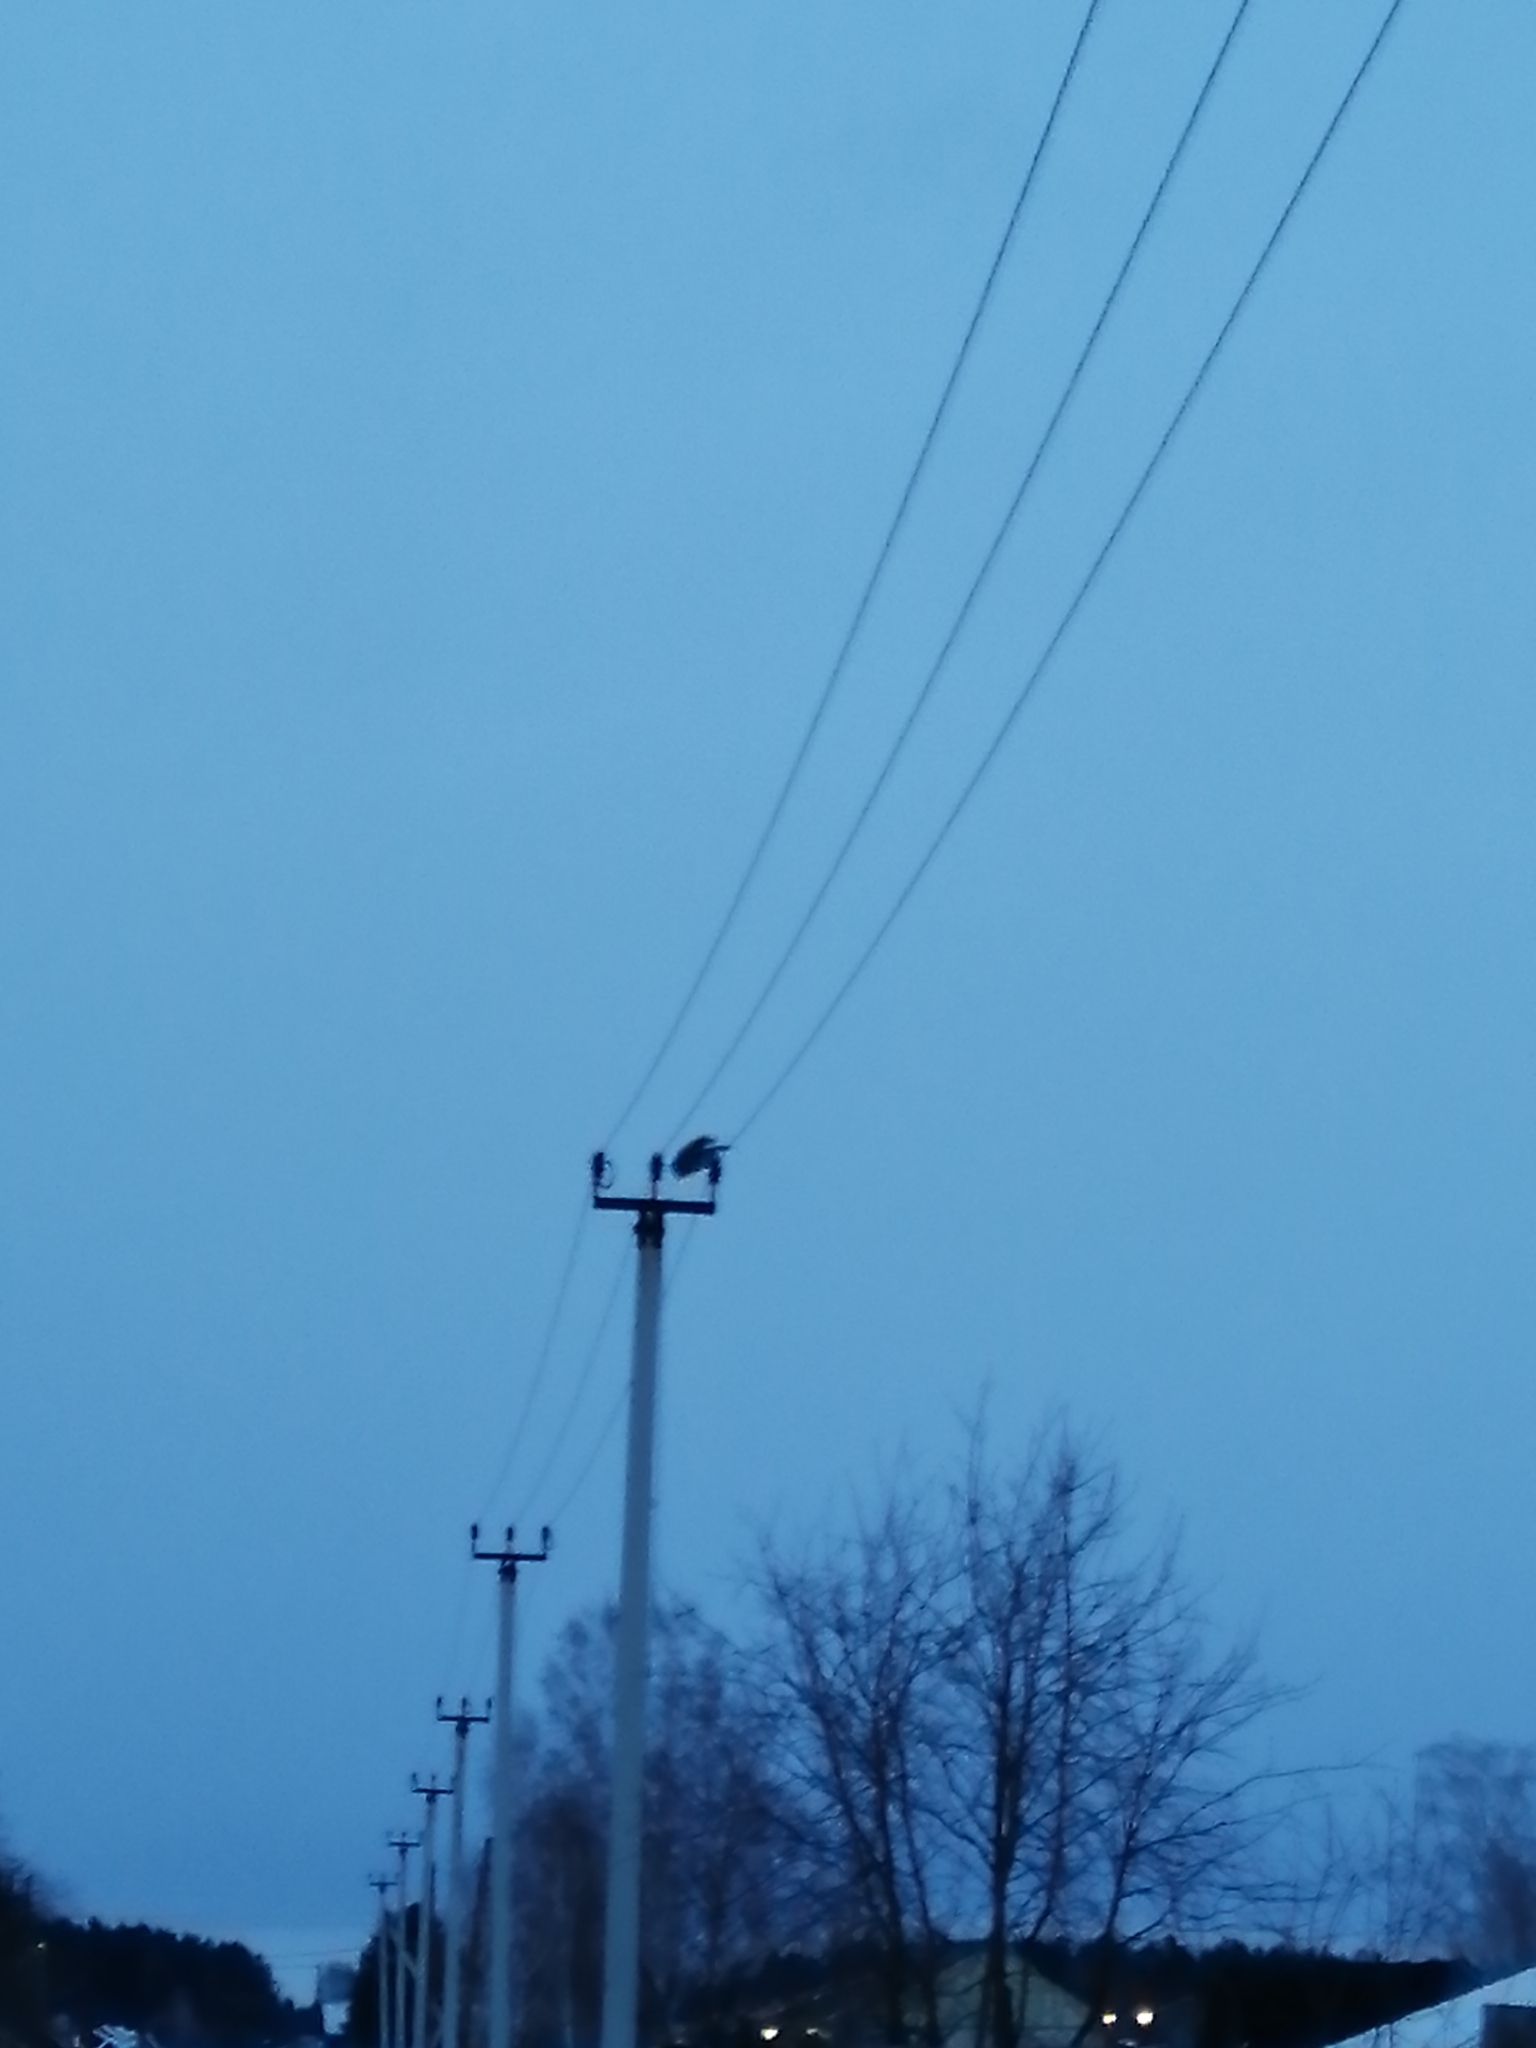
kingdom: Animalia
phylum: Chordata
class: Aves
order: Strigiformes
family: Strigidae
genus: Strix
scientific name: Strix nebulosa
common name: Great grey owl
